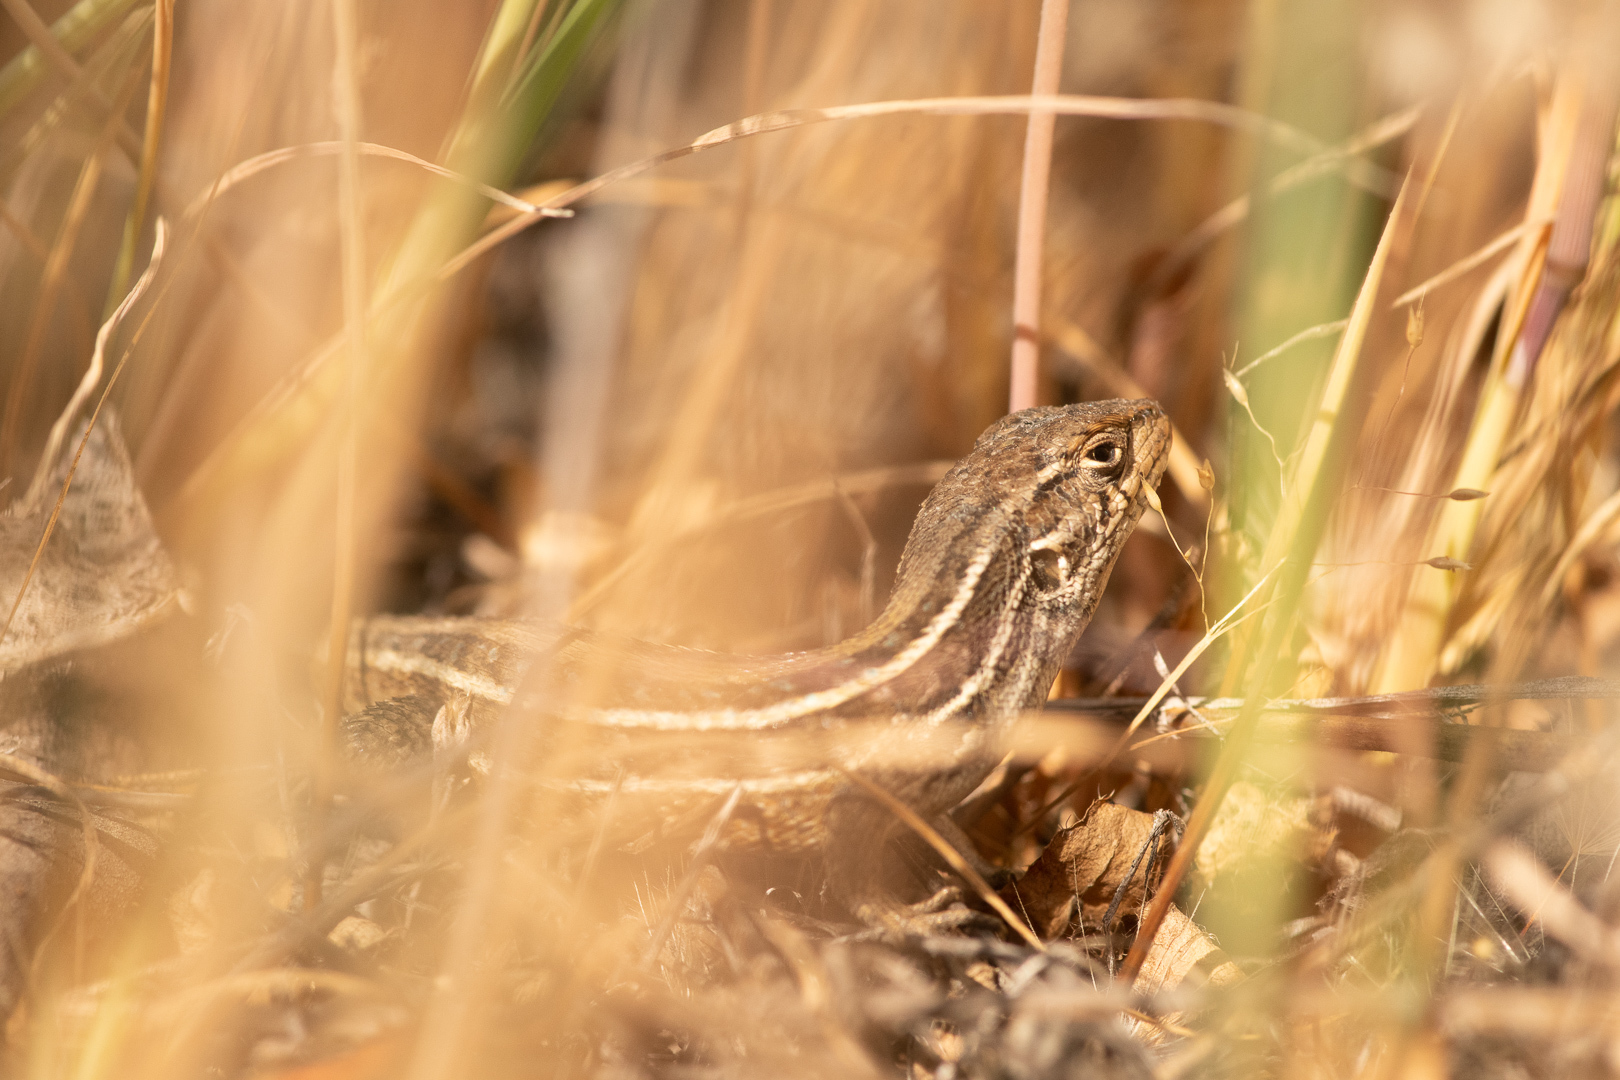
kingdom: Animalia
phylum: Chordata
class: Squamata
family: Liolaemidae
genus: Liolaemus
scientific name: Liolaemus lemniscatus
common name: Wreath tree iguana
